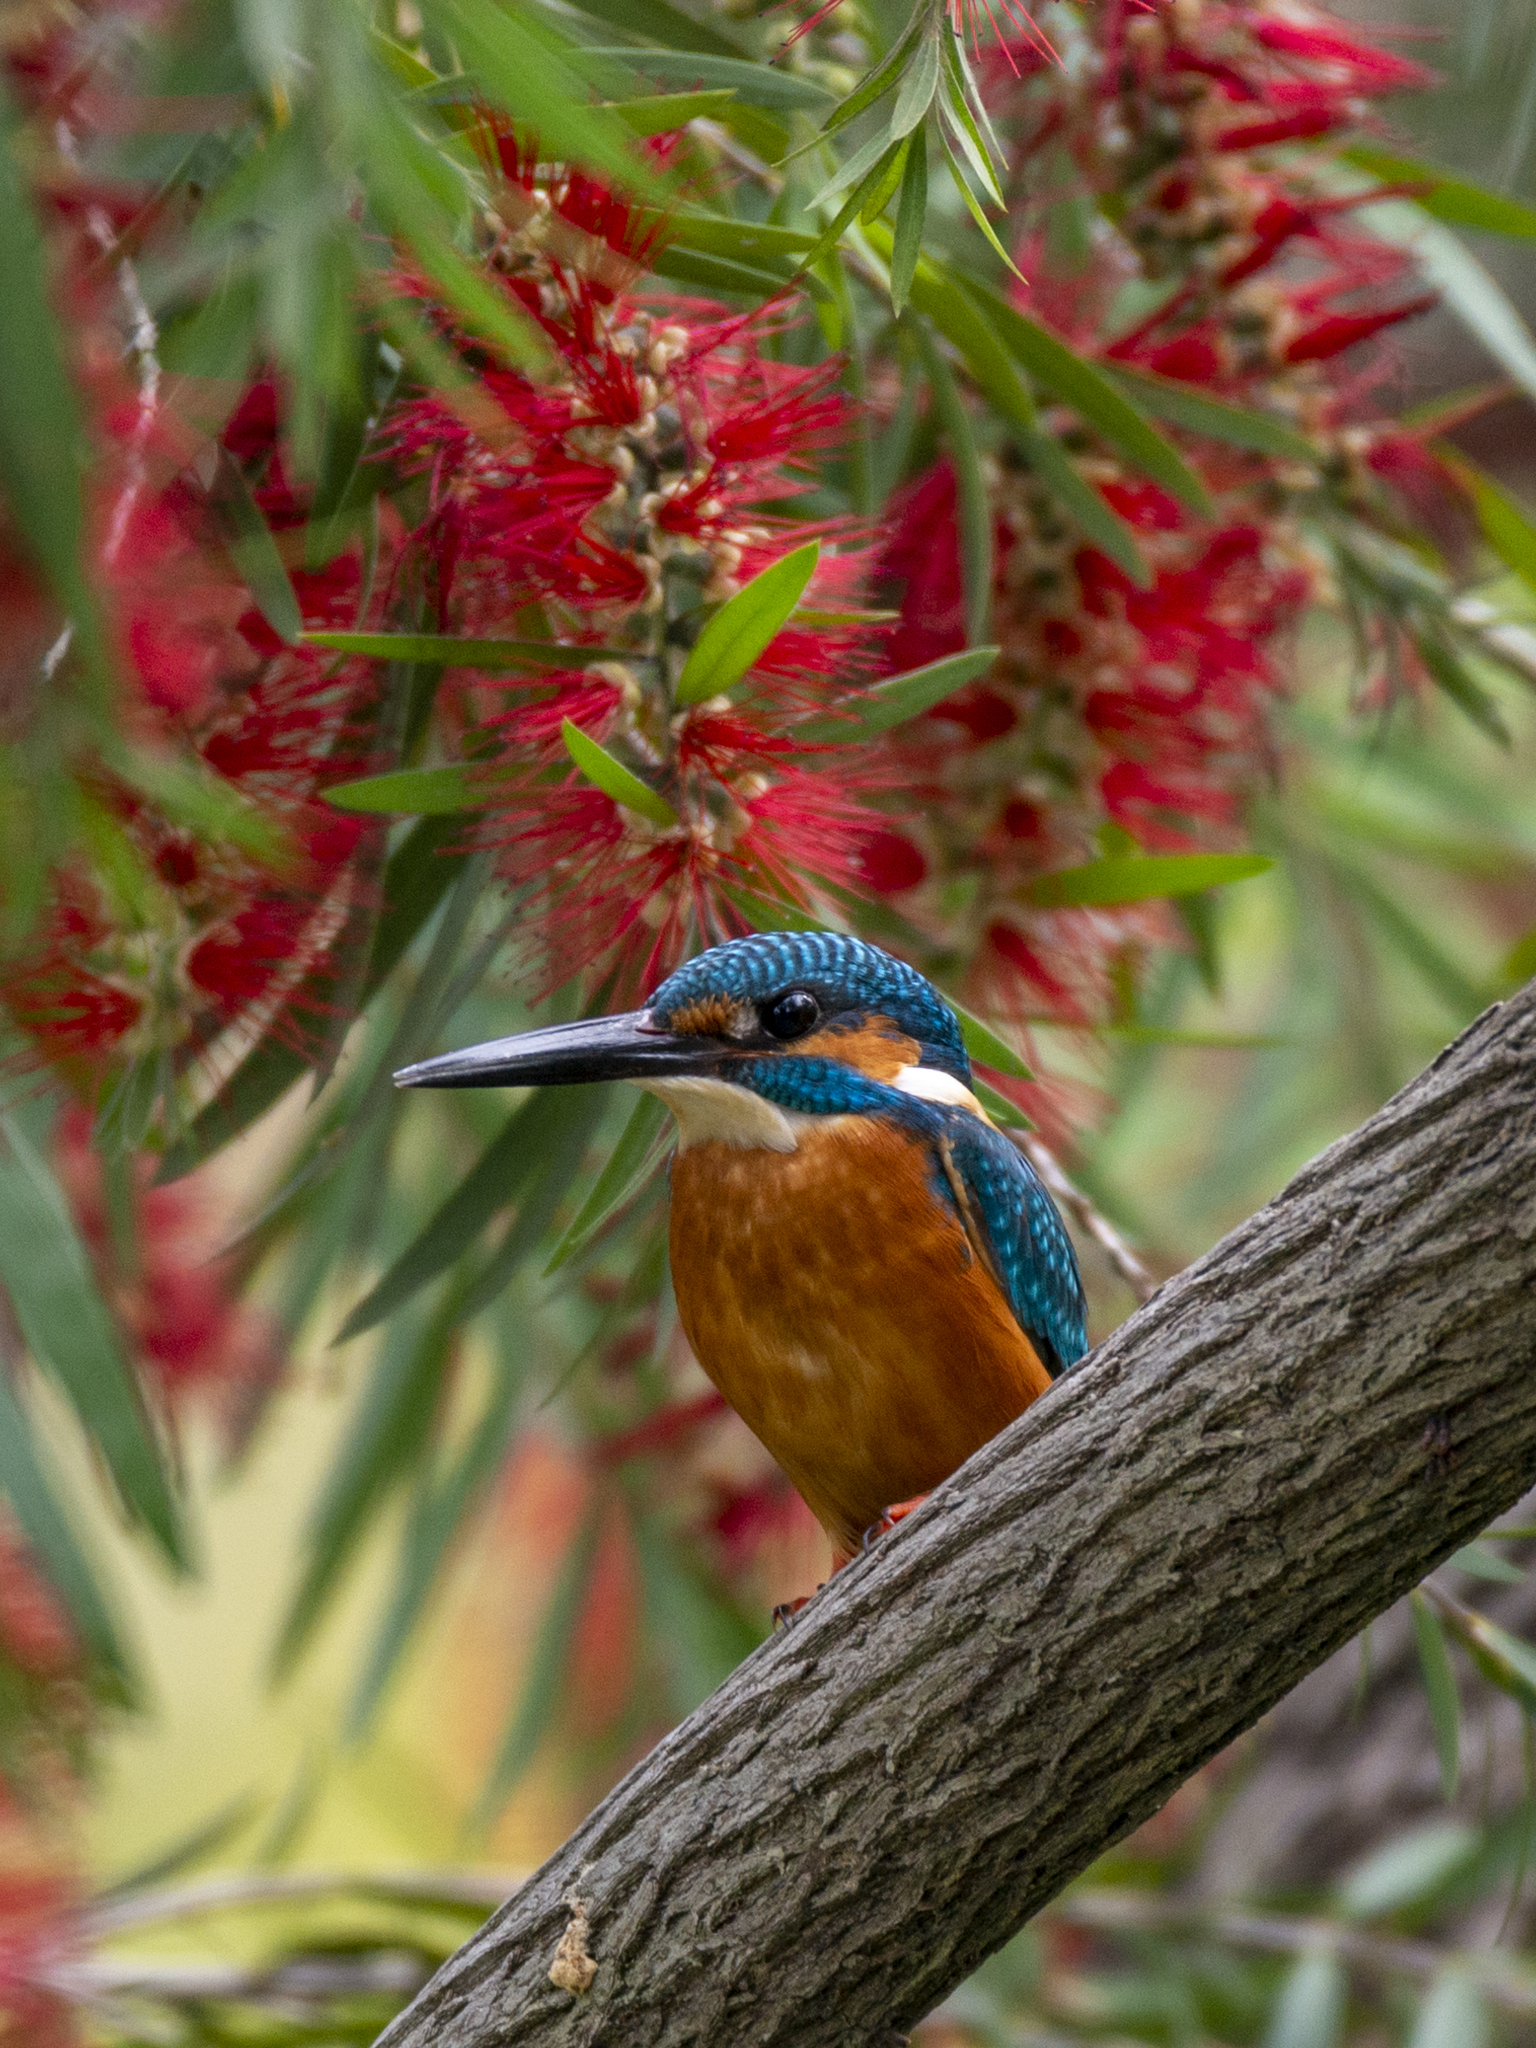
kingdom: Animalia
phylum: Chordata
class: Aves
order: Coraciiformes
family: Alcedinidae
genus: Alcedo
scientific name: Alcedo atthis
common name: Common kingfisher
